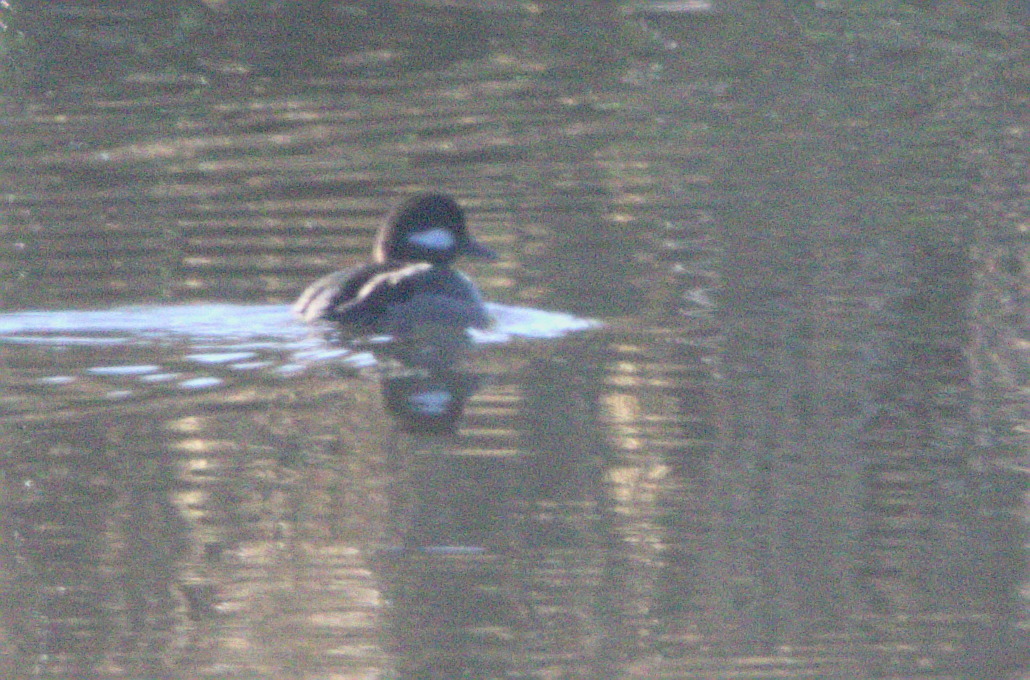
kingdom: Animalia
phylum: Chordata
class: Aves
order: Anseriformes
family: Anatidae
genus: Bucephala
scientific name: Bucephala albeola
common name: Bufflehead
